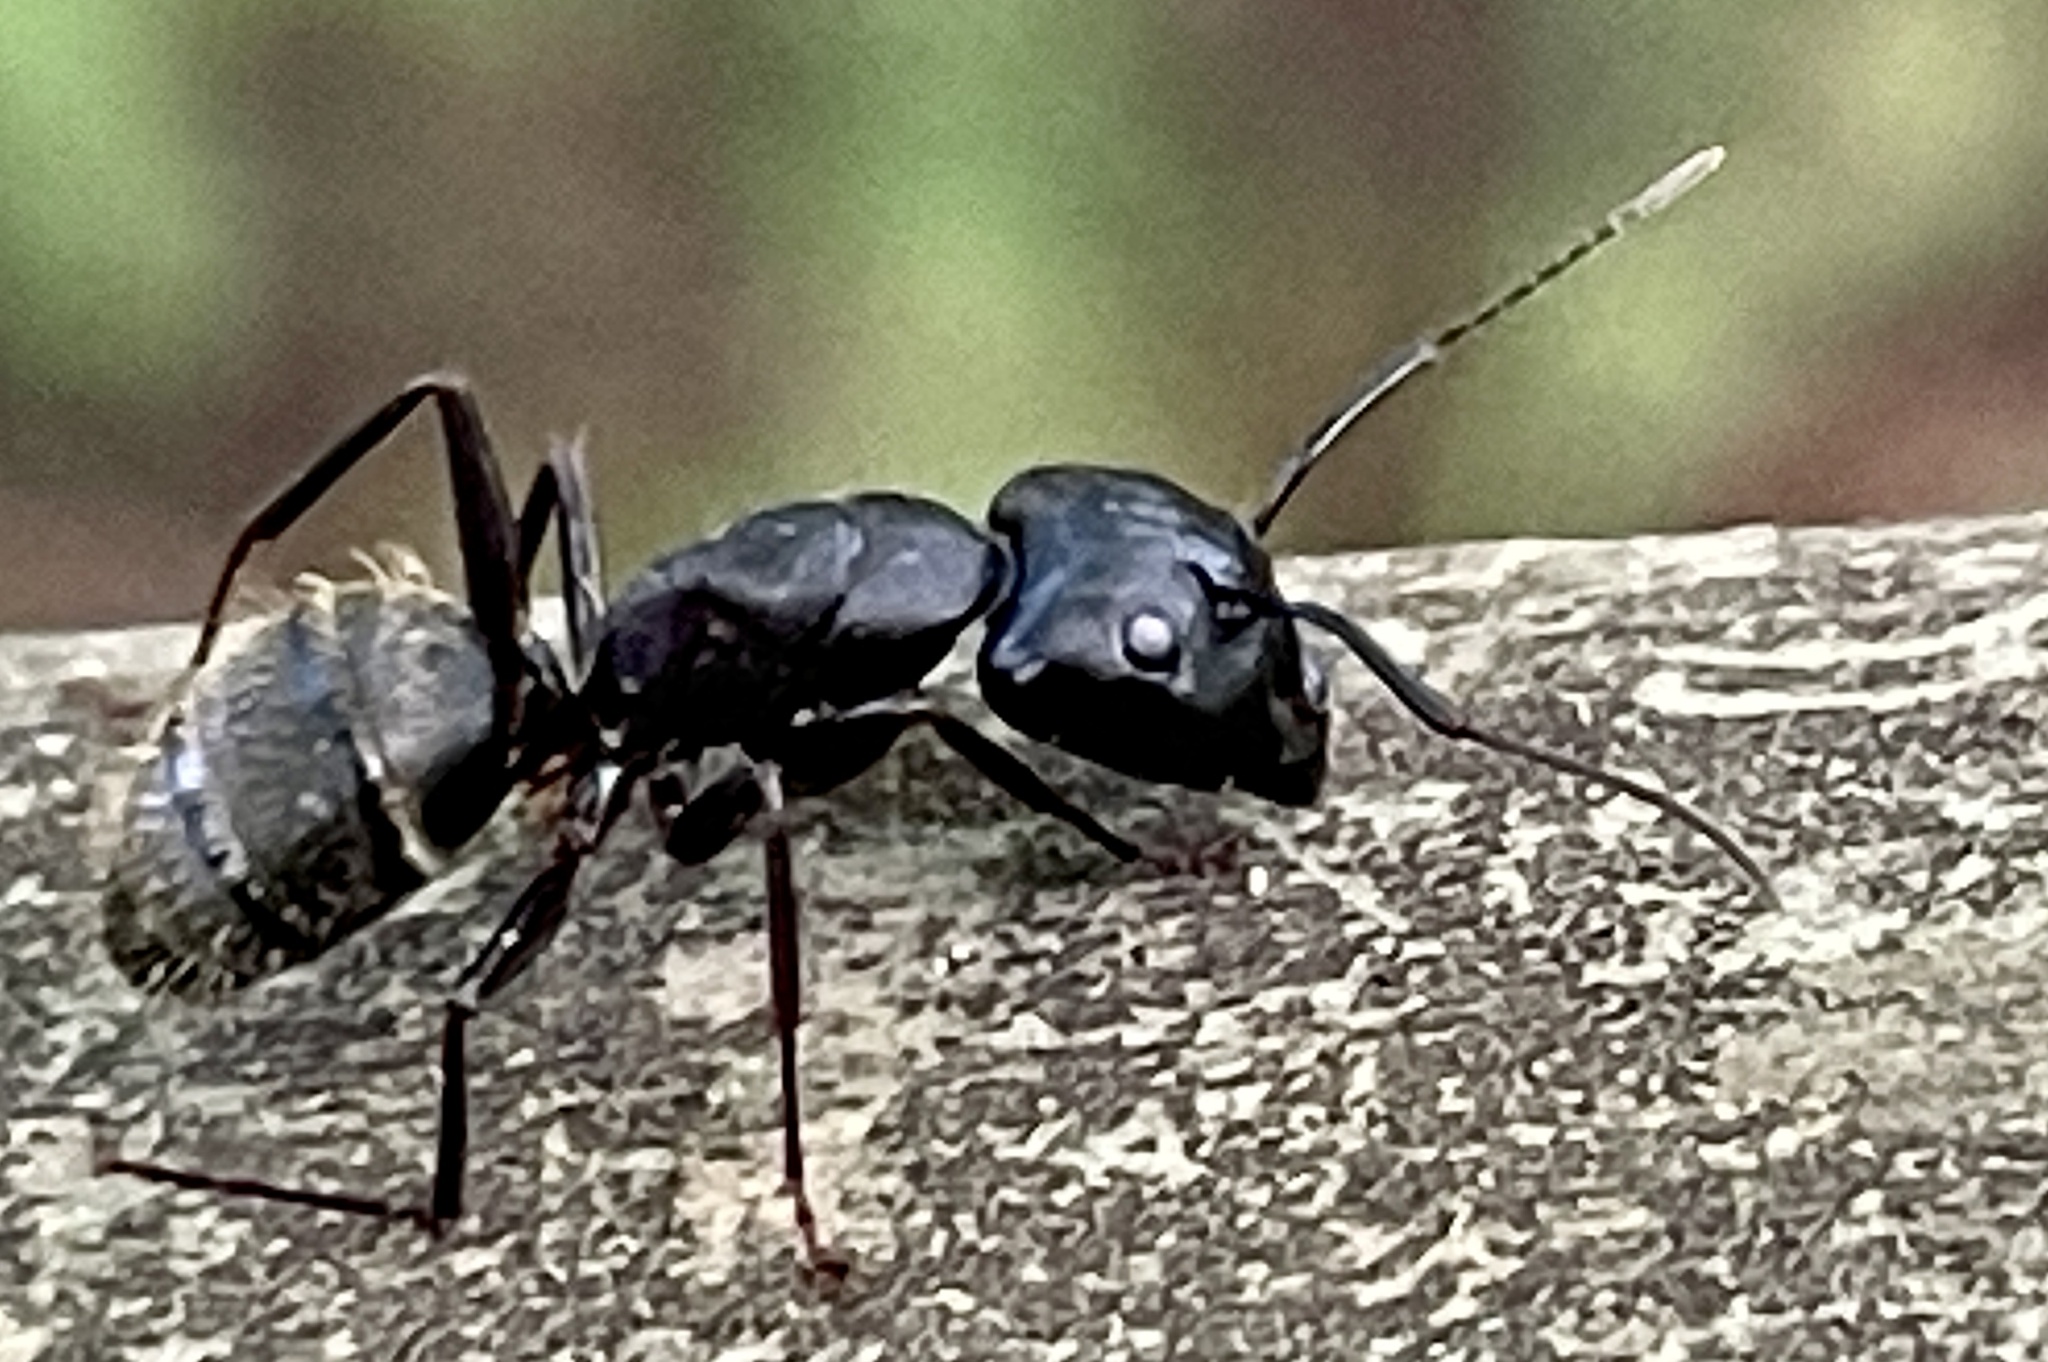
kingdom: Animalia
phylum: Arthropoda
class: Insecta
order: Hymenoptera
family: Formicidae
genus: Camponotus
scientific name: Camponotus pennsylvanicus
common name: Black carpenter ant
